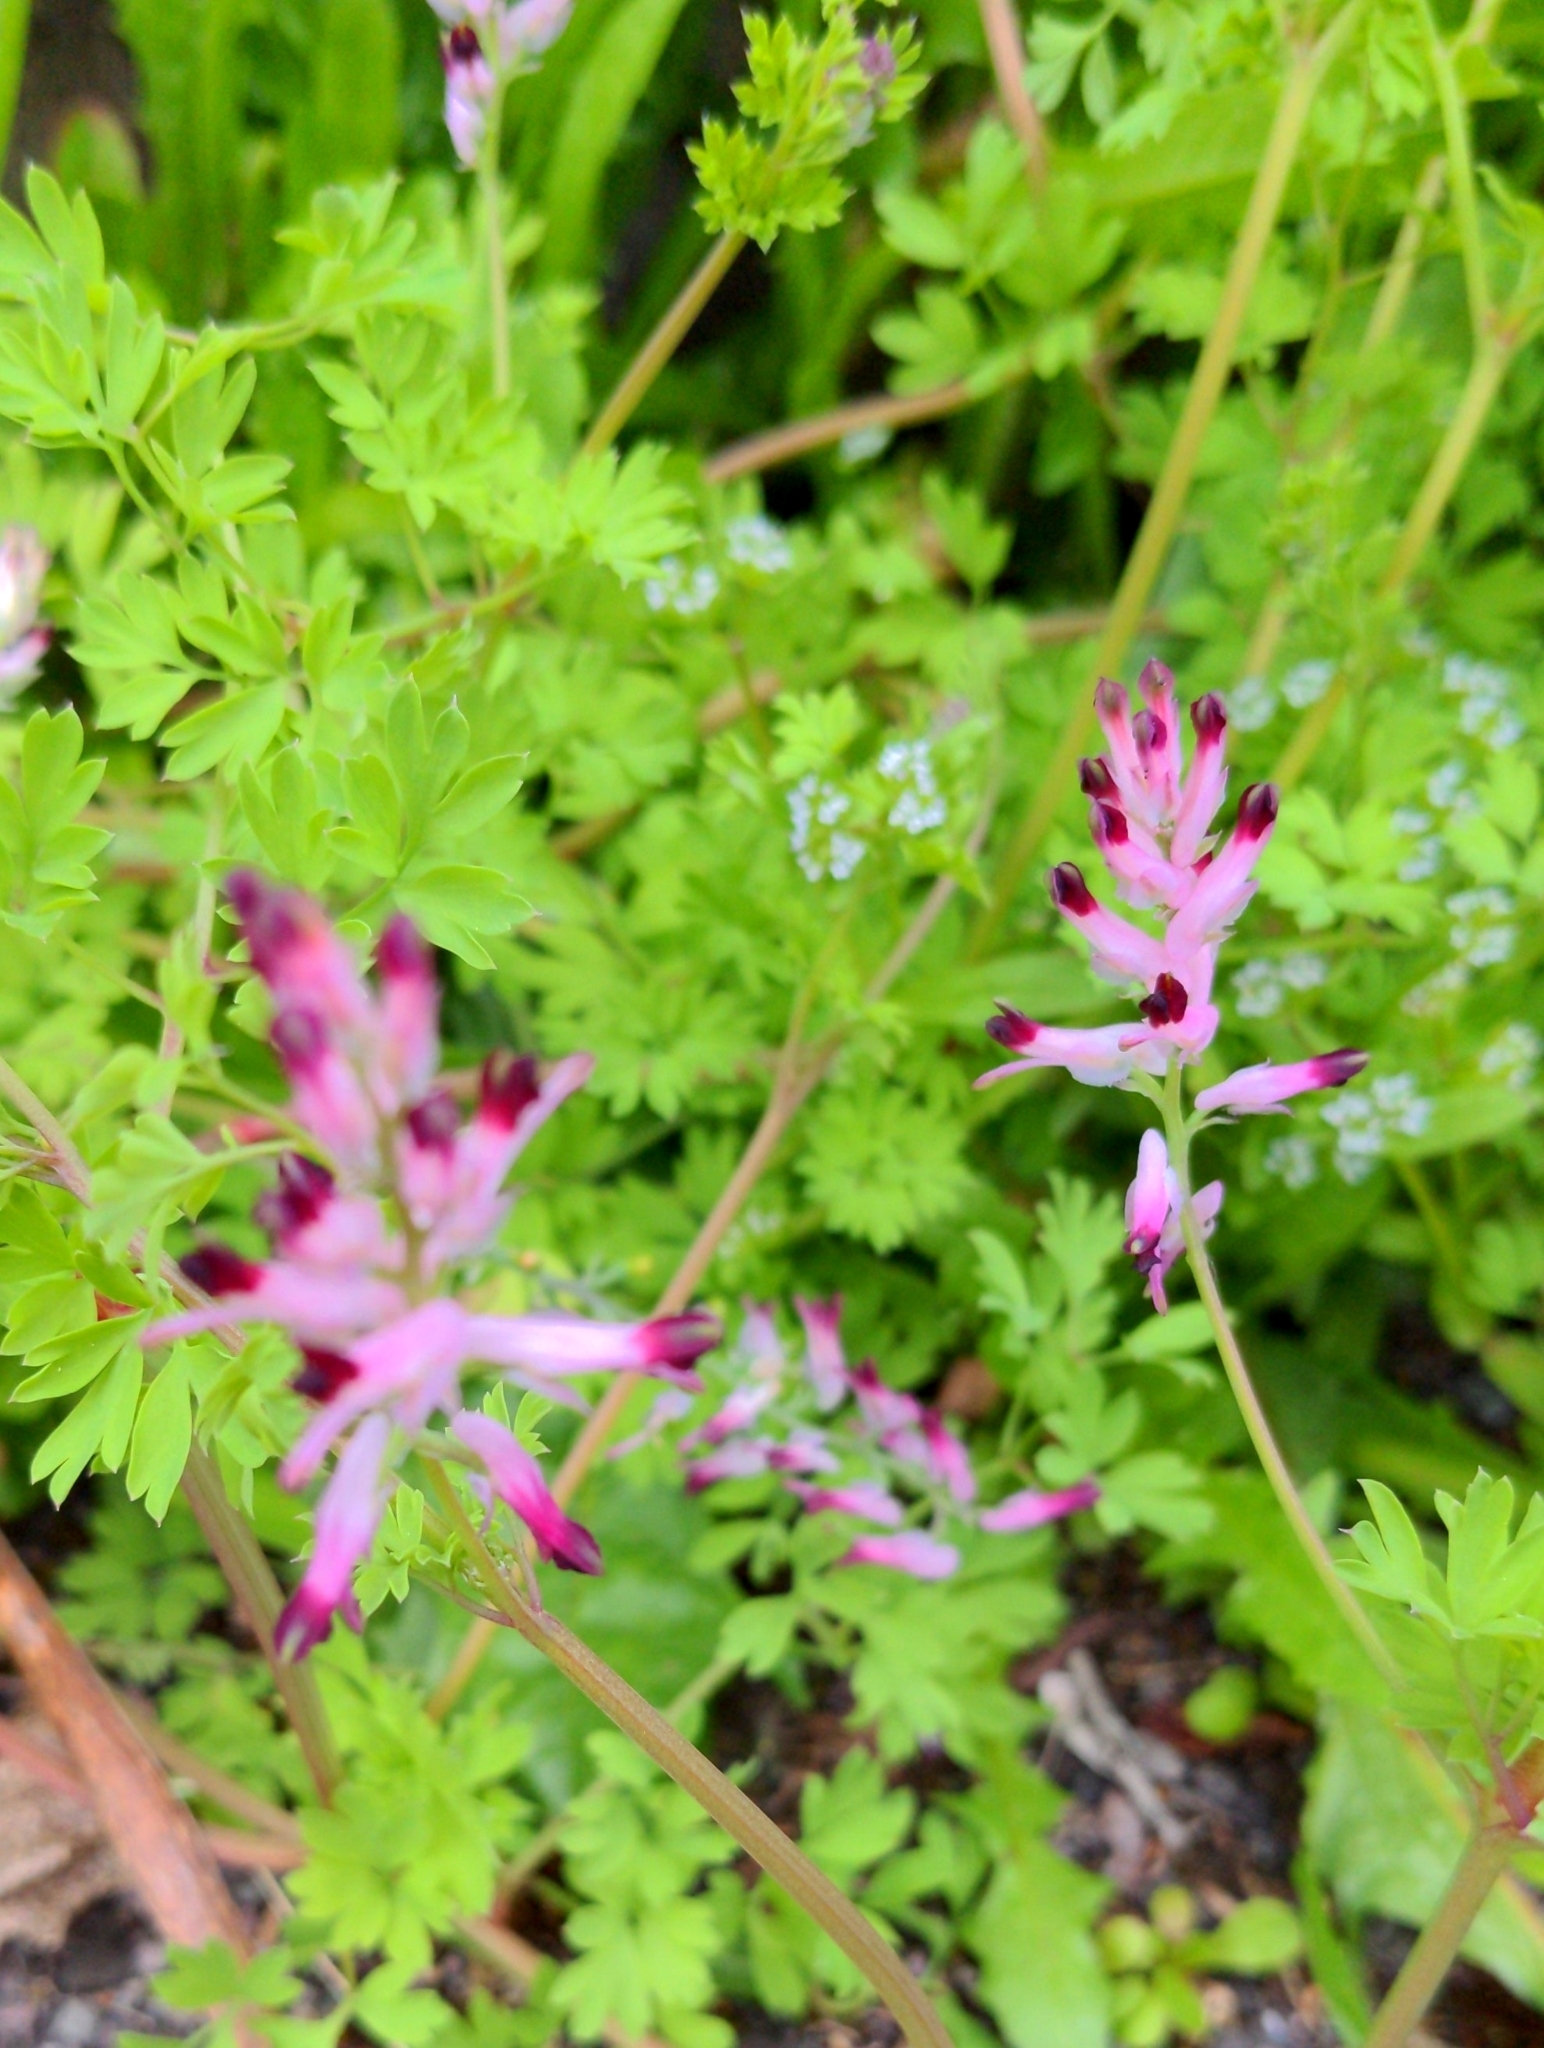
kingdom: Plantae
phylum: Tracheophyta
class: Magnoliopsida
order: Ranunculales
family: Papaveraceae
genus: Fumaria
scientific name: Fumaria muralis
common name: Common ramping-fumitory
